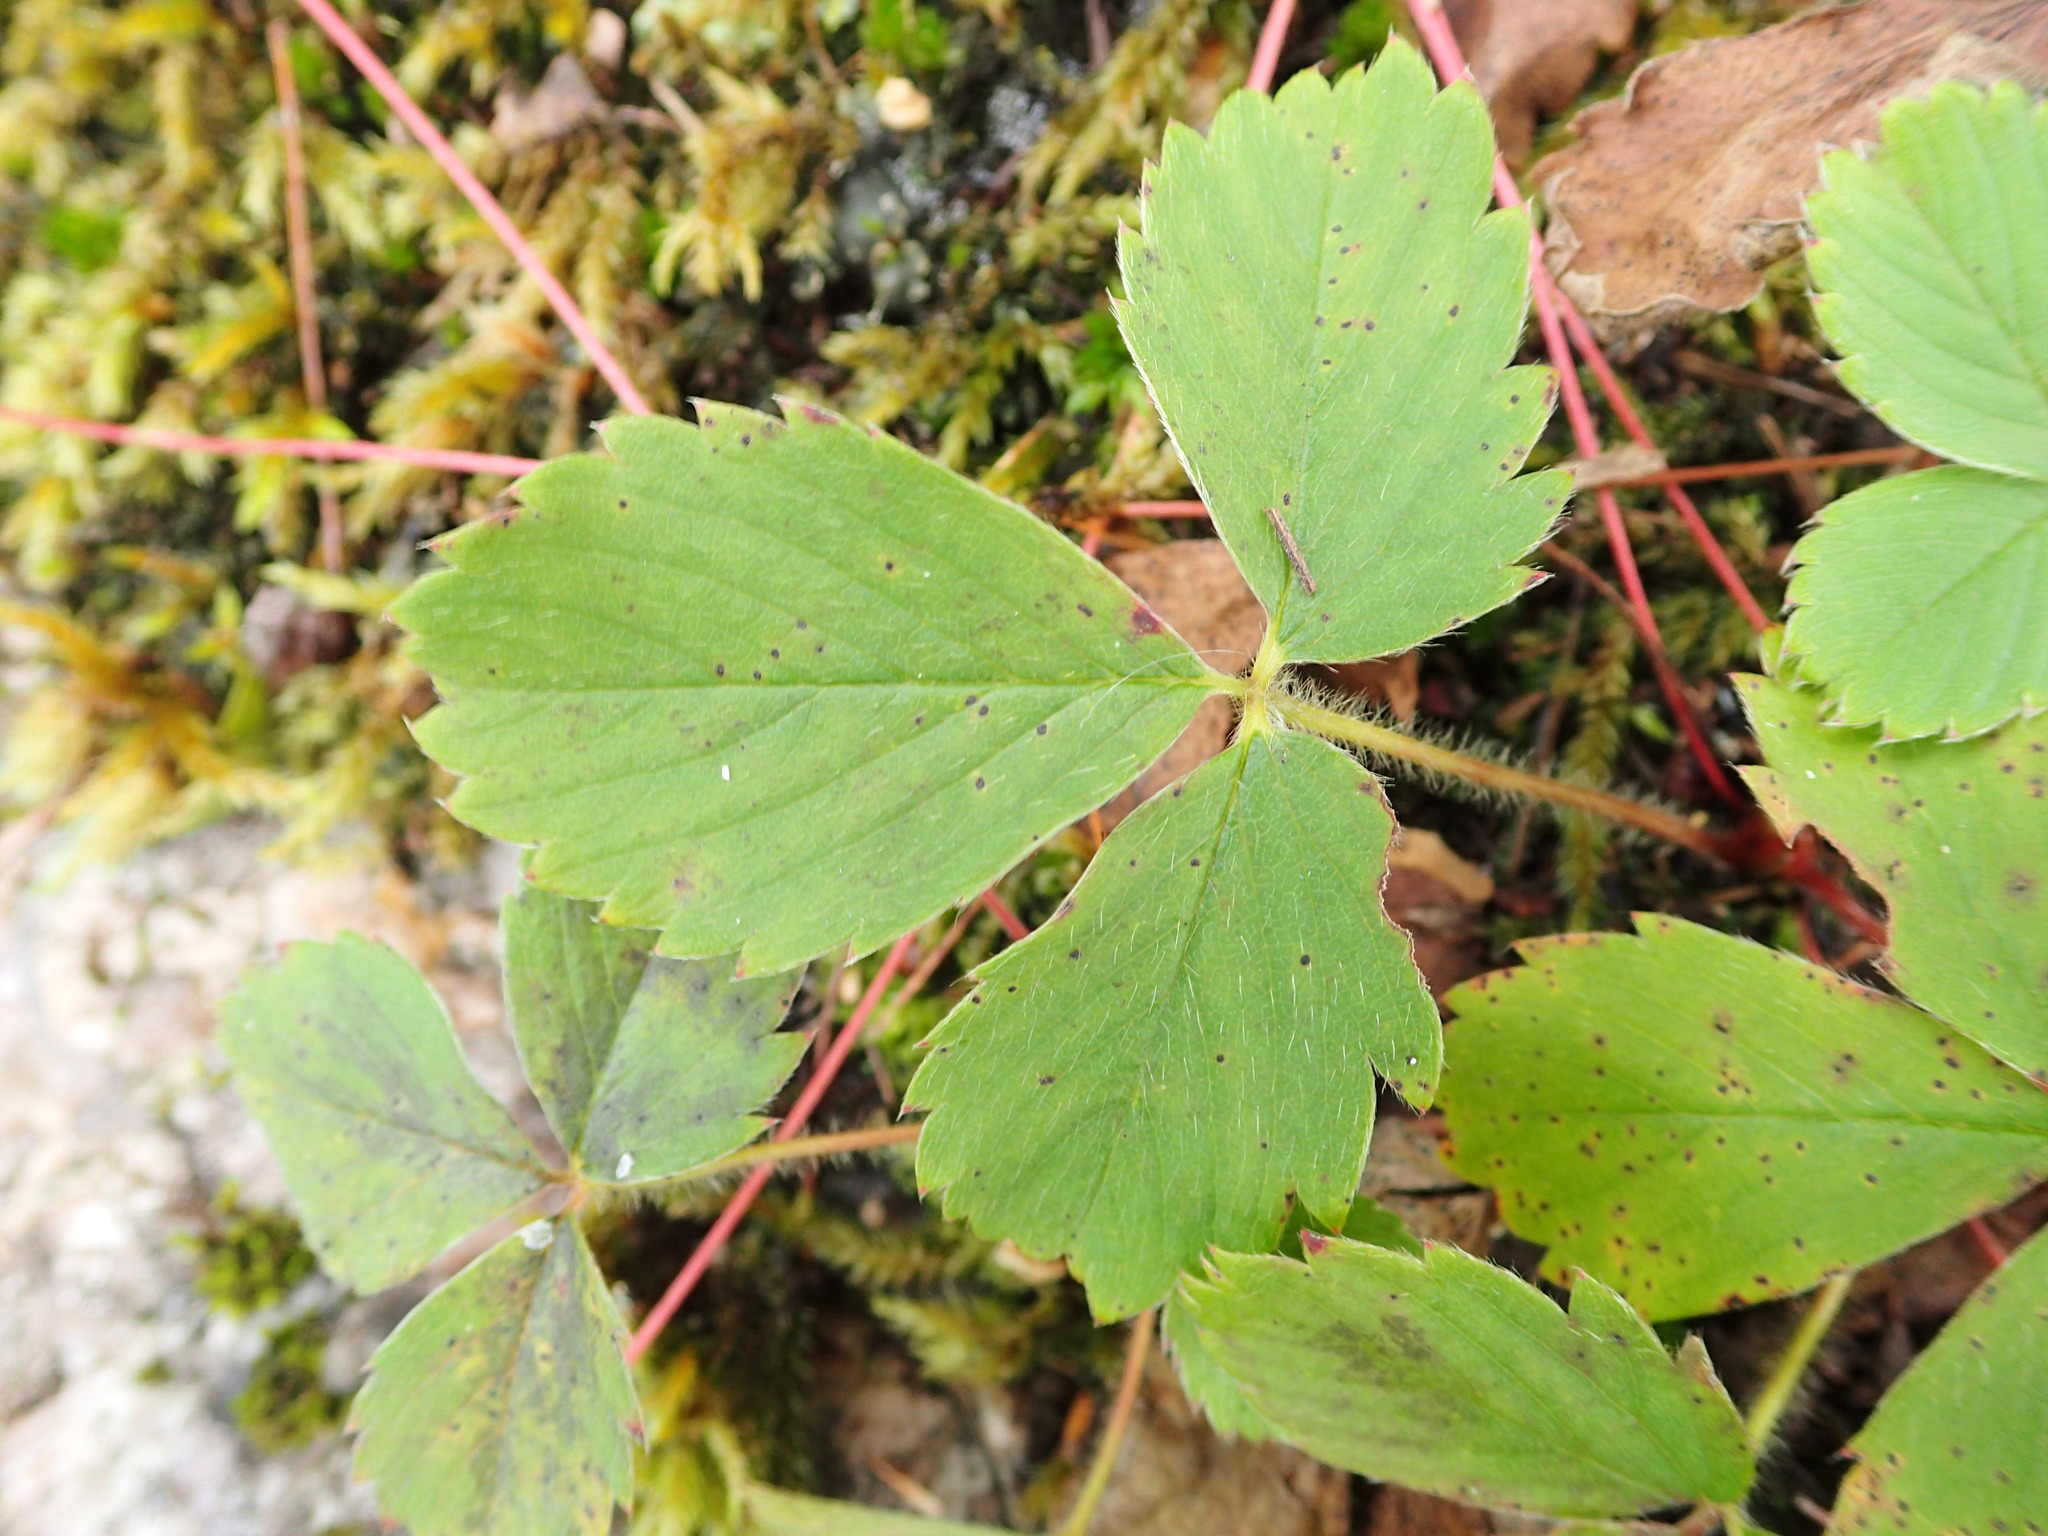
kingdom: Plantae
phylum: Tracheophyta
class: Magnoliopsida
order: Rosales
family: Rosaceae
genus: Fragaria
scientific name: Fragaria virginiana
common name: Thickleaved wild strawberry
